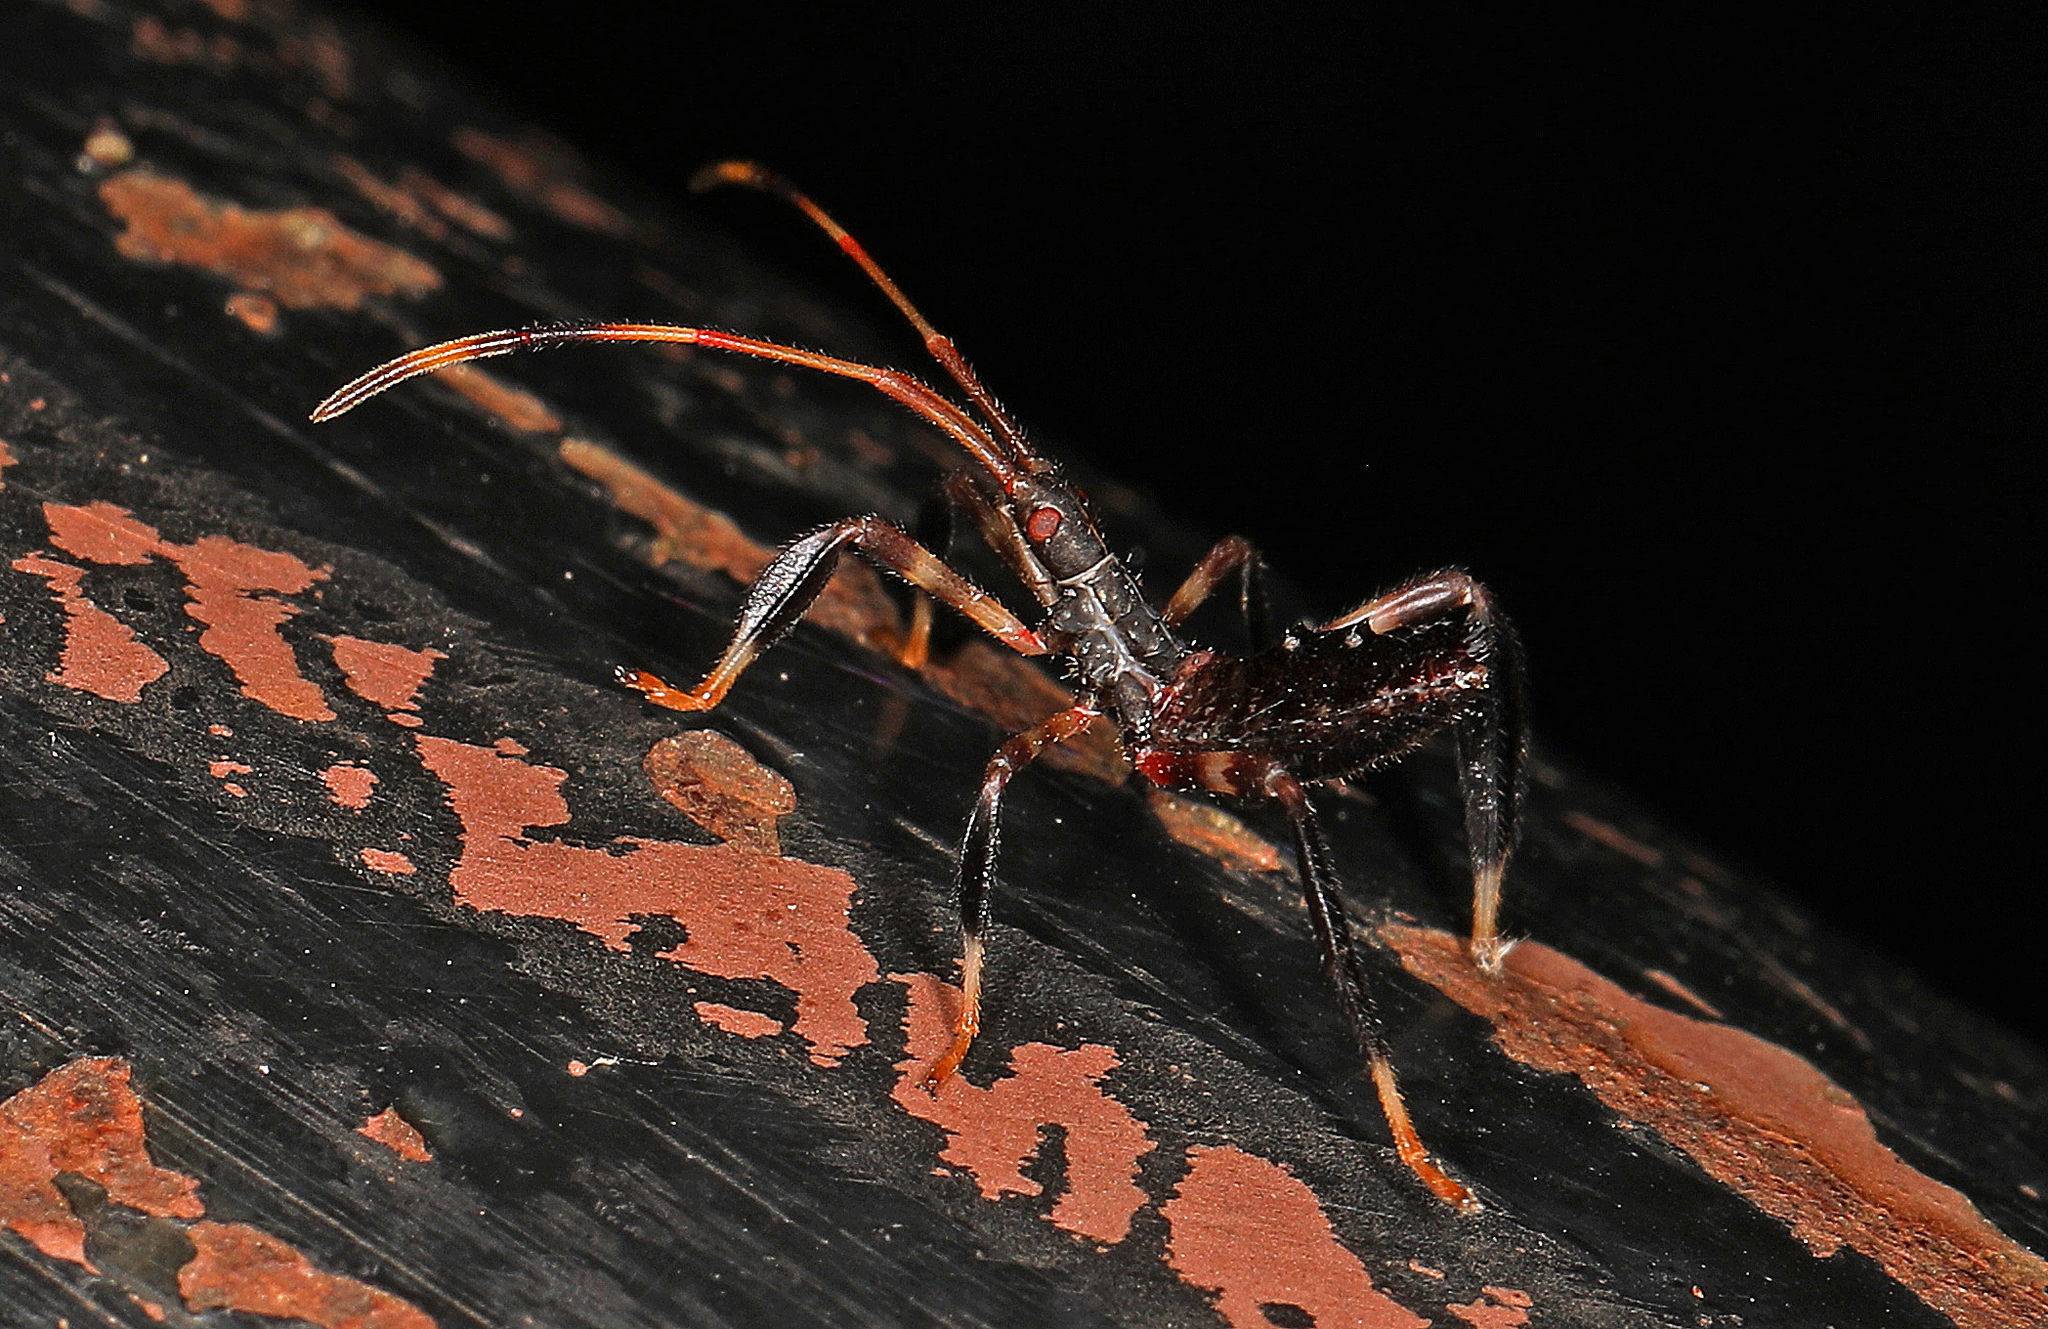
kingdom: Animalia
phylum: Arthropoda
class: Insecta
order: Hemiptera
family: Coreidae
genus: Acanthocephala
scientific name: Acanthocephala terminalis
